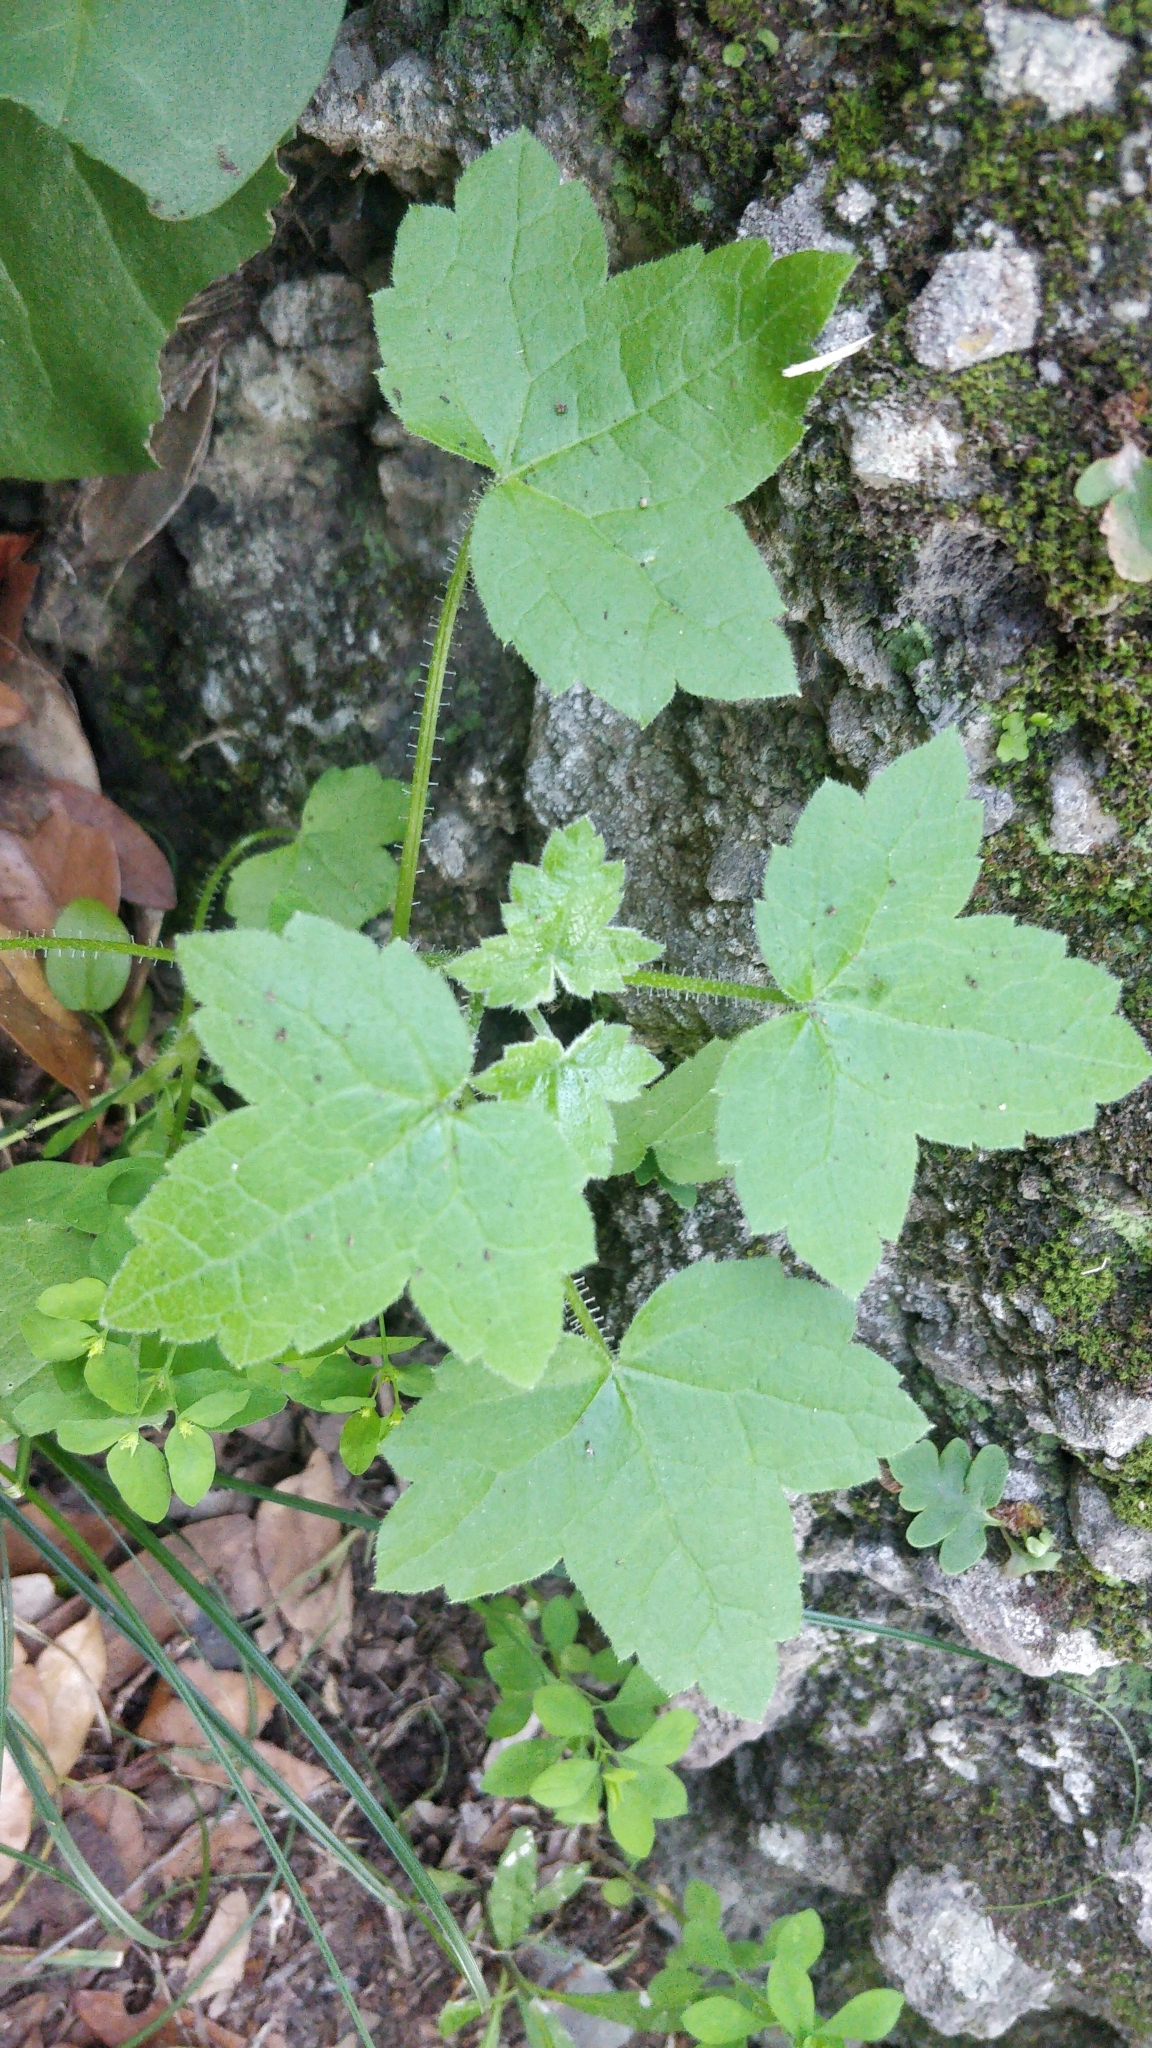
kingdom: Plantae
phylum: Tracheophyta
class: Magnoliopsida
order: Apiales
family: Apiaceae
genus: Drusa
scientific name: Drusa glandulosa
